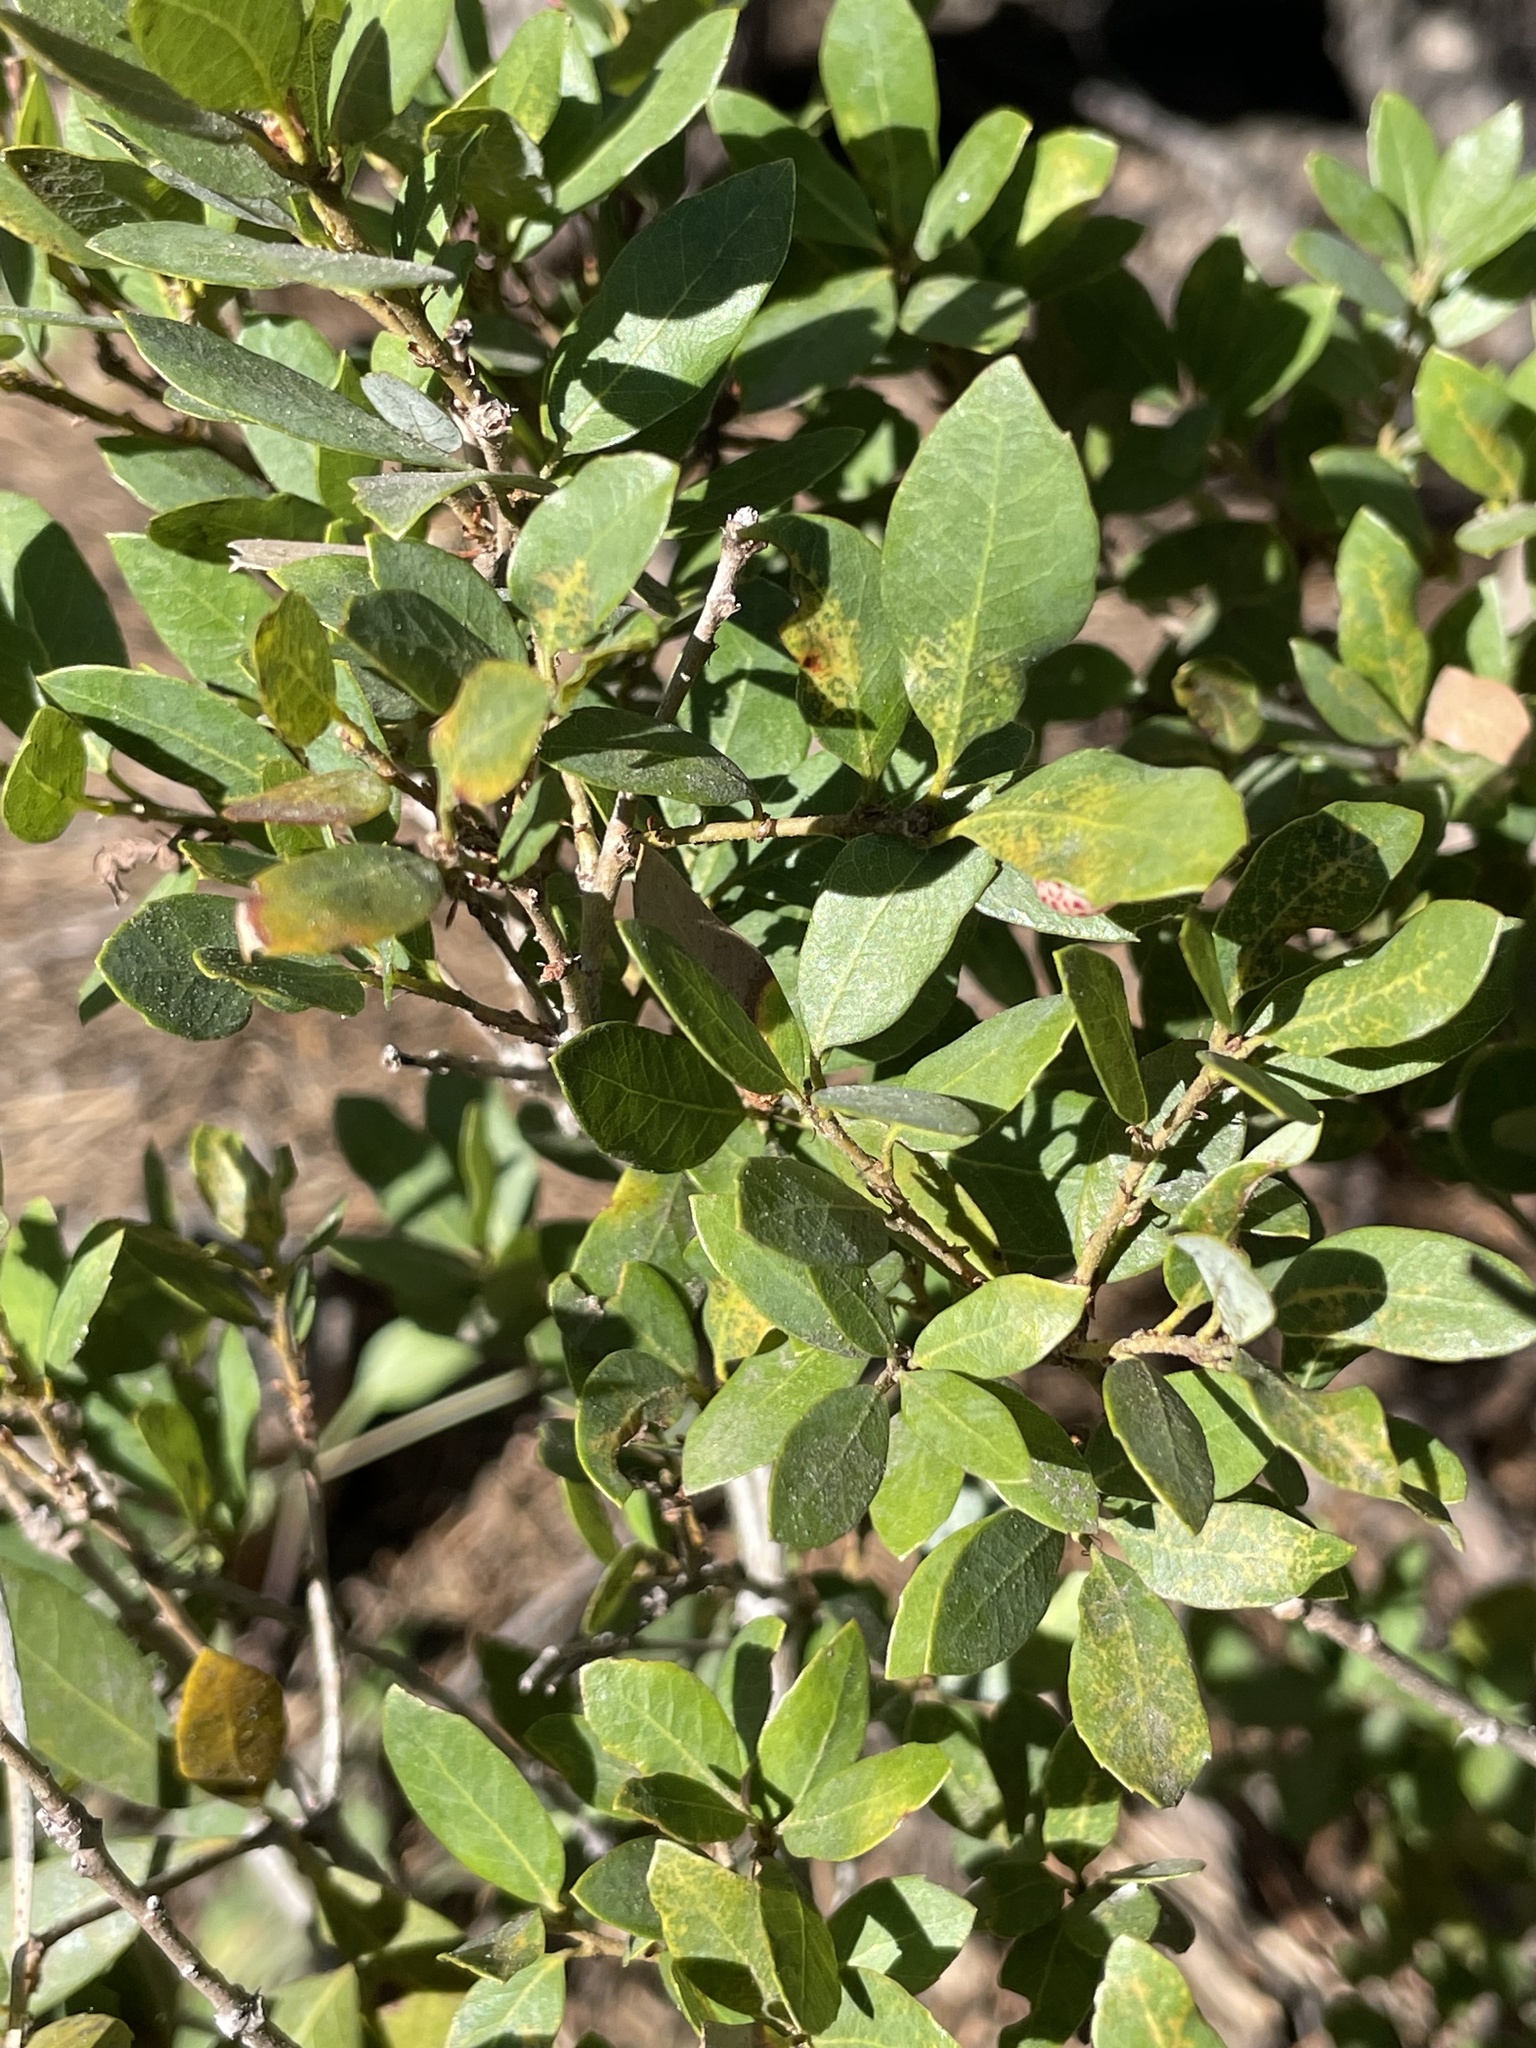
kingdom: Plantae
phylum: Tracheophyta
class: Magnoliopsida
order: Fagales
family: Fagaceae
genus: Quercus
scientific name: Quercus vacciniifolia
